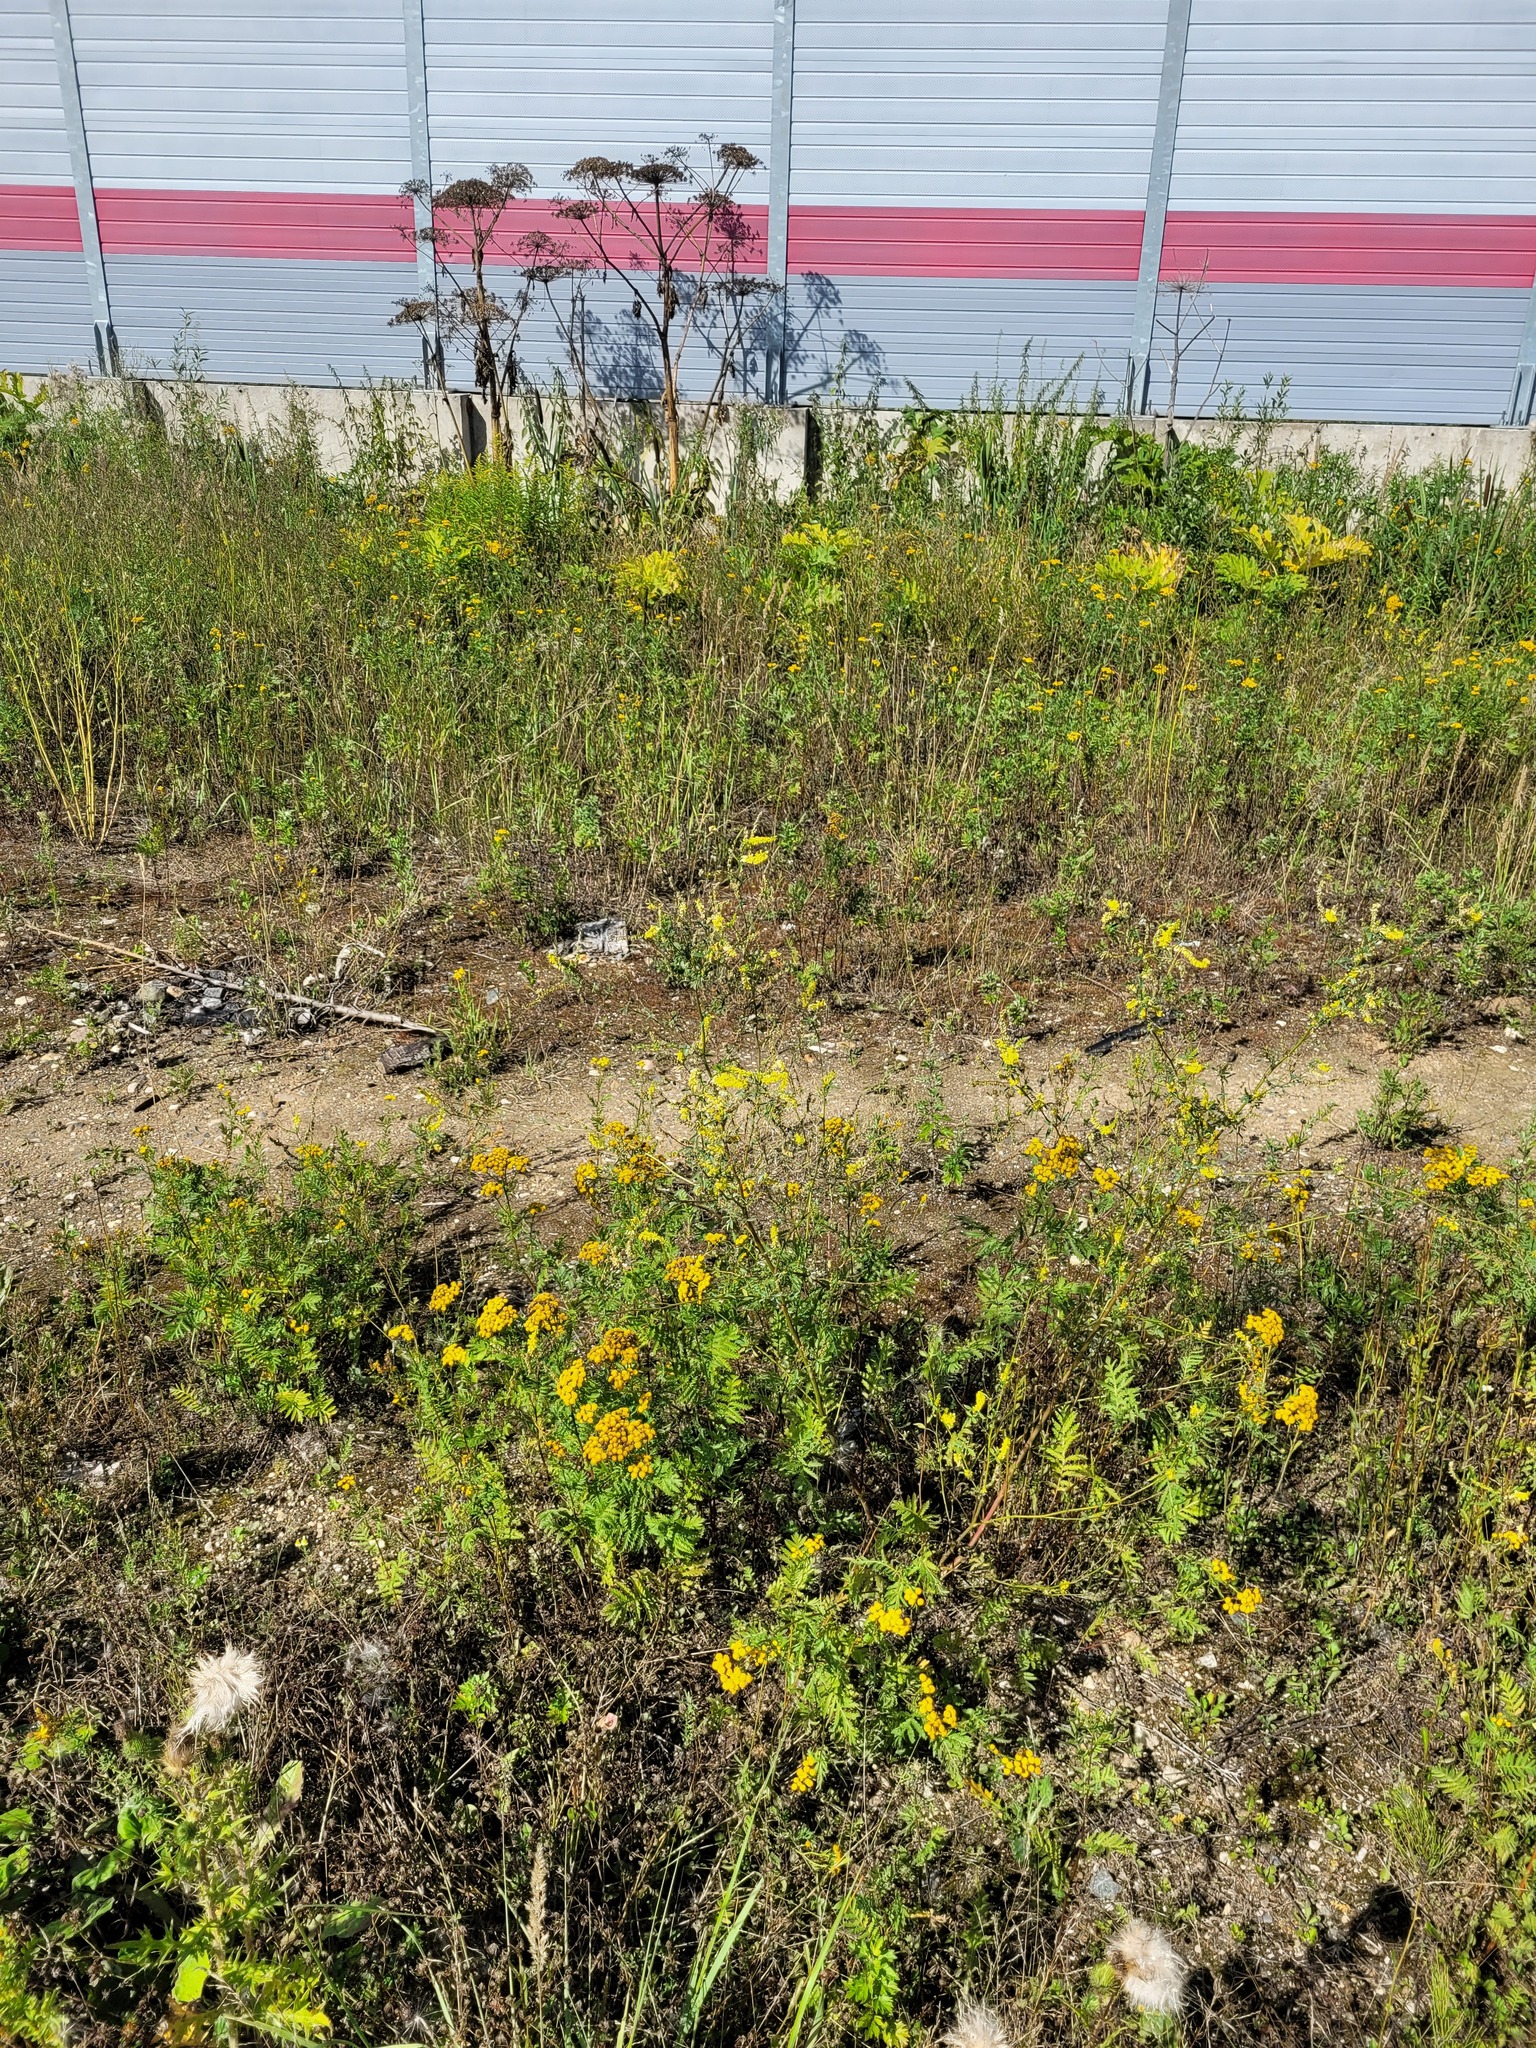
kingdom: Plantae
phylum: Tracheophyta
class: Magnoliopsida
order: Fabales
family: Fabaceae
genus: Melilotus
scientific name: Melilotus officinalis
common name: Sweetclover
